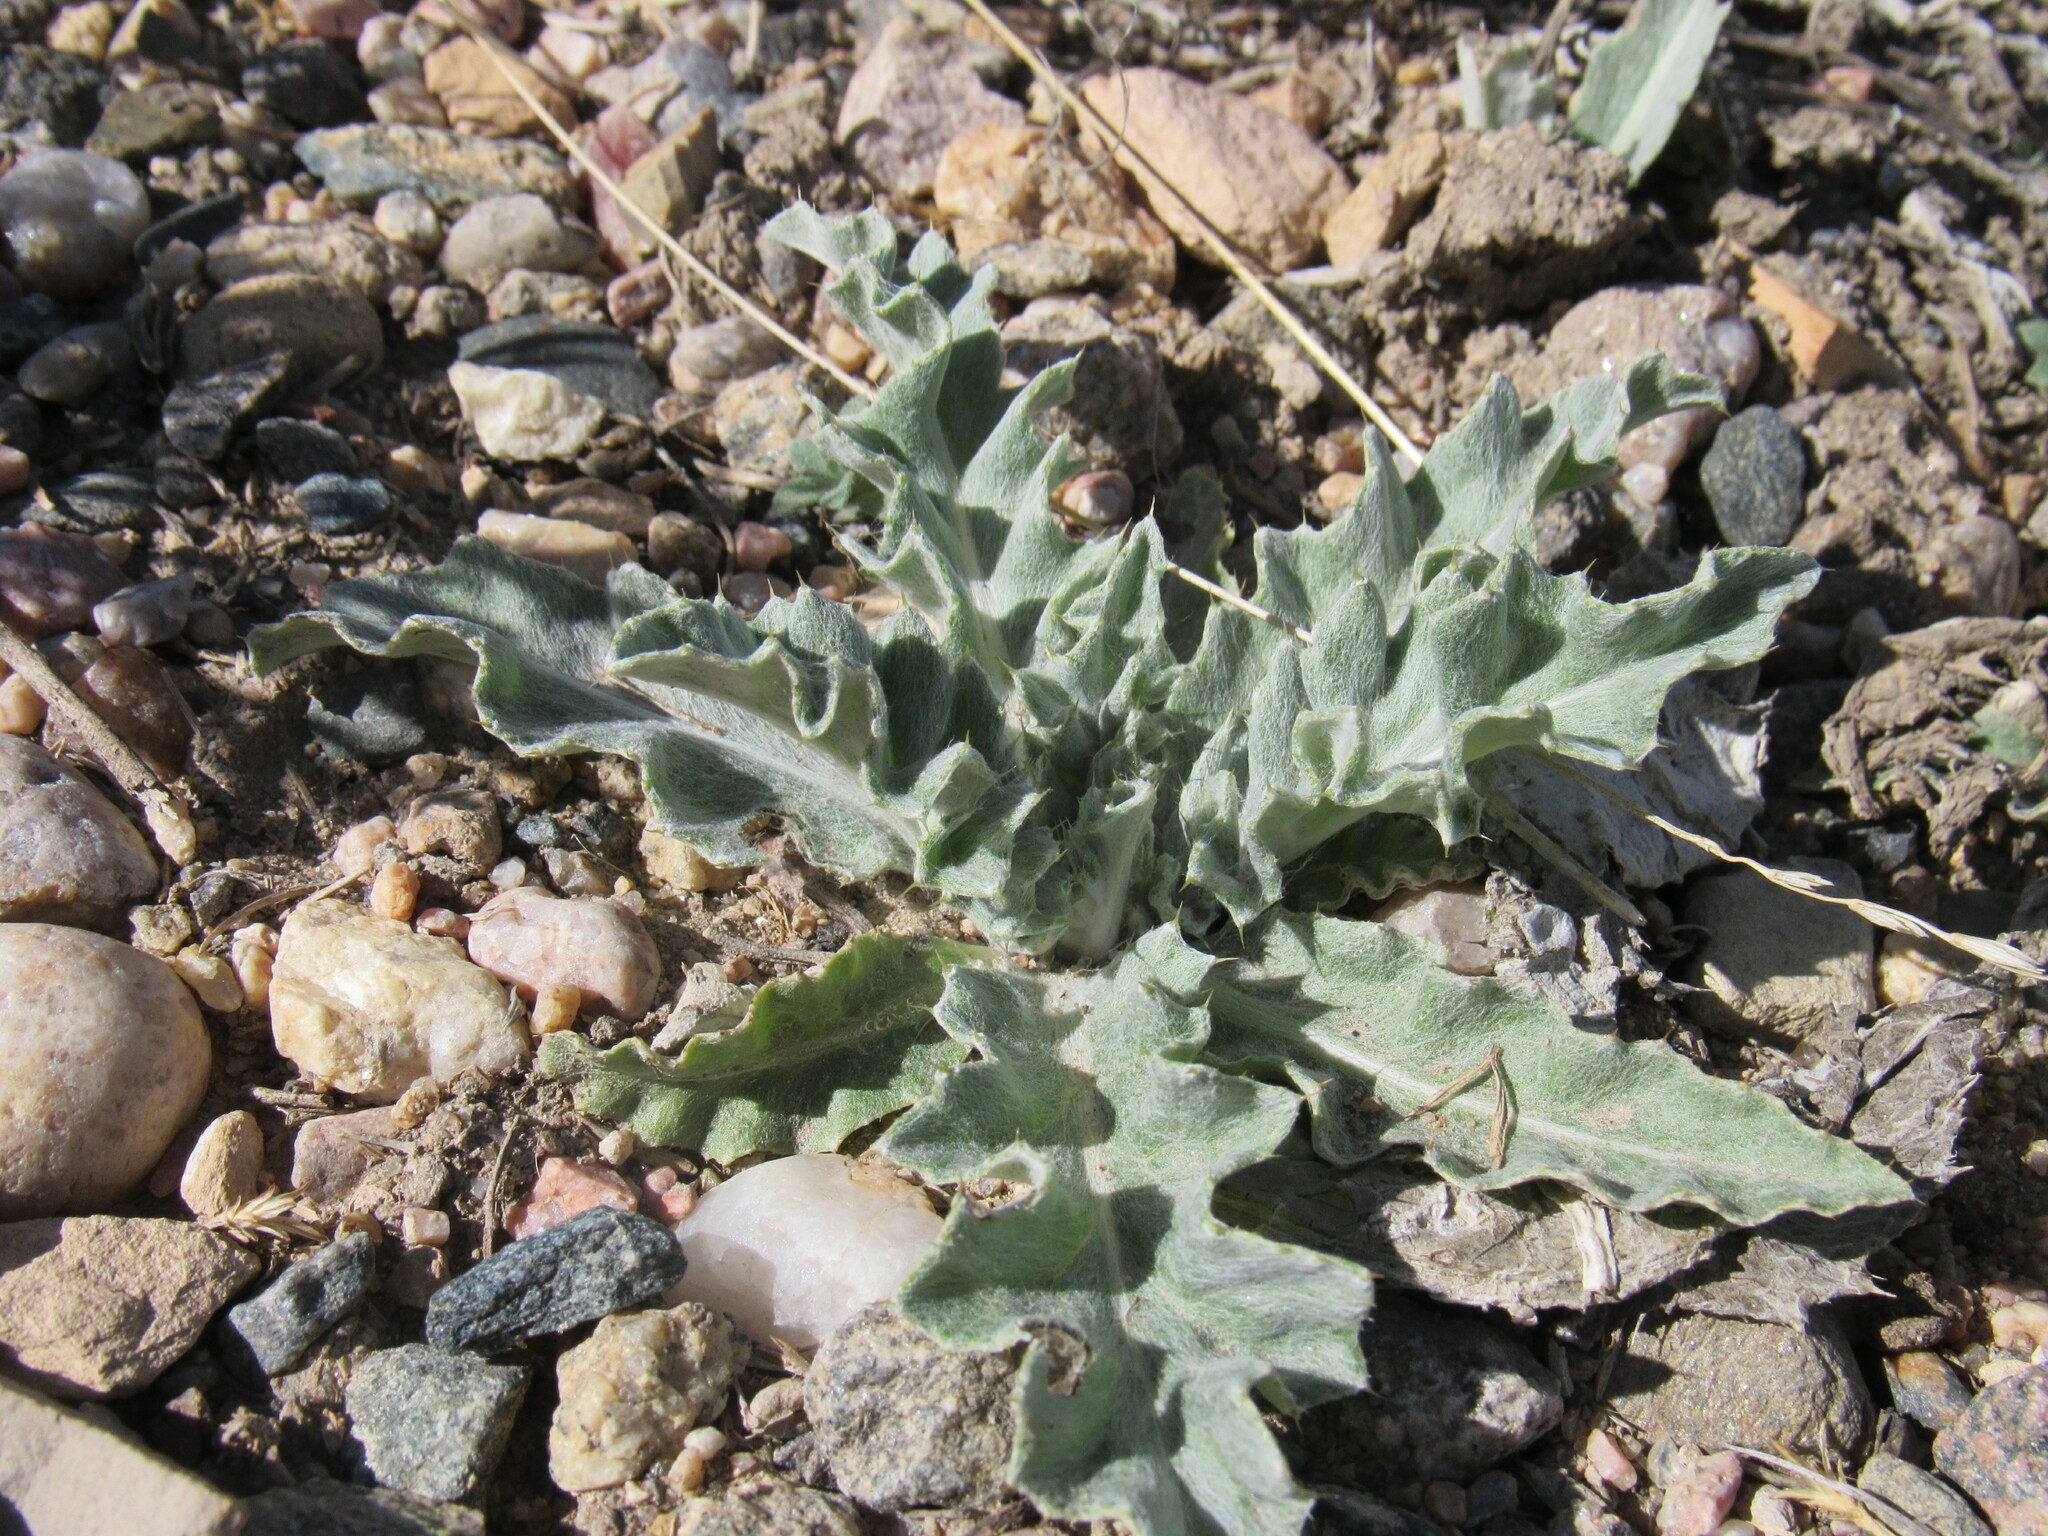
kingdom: Plantae
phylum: Tracheophyta
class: Magnoliopsida
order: Asterales
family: Asteraceae
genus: Cirsium
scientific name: Cirsium undulatum
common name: Pasture thistle
